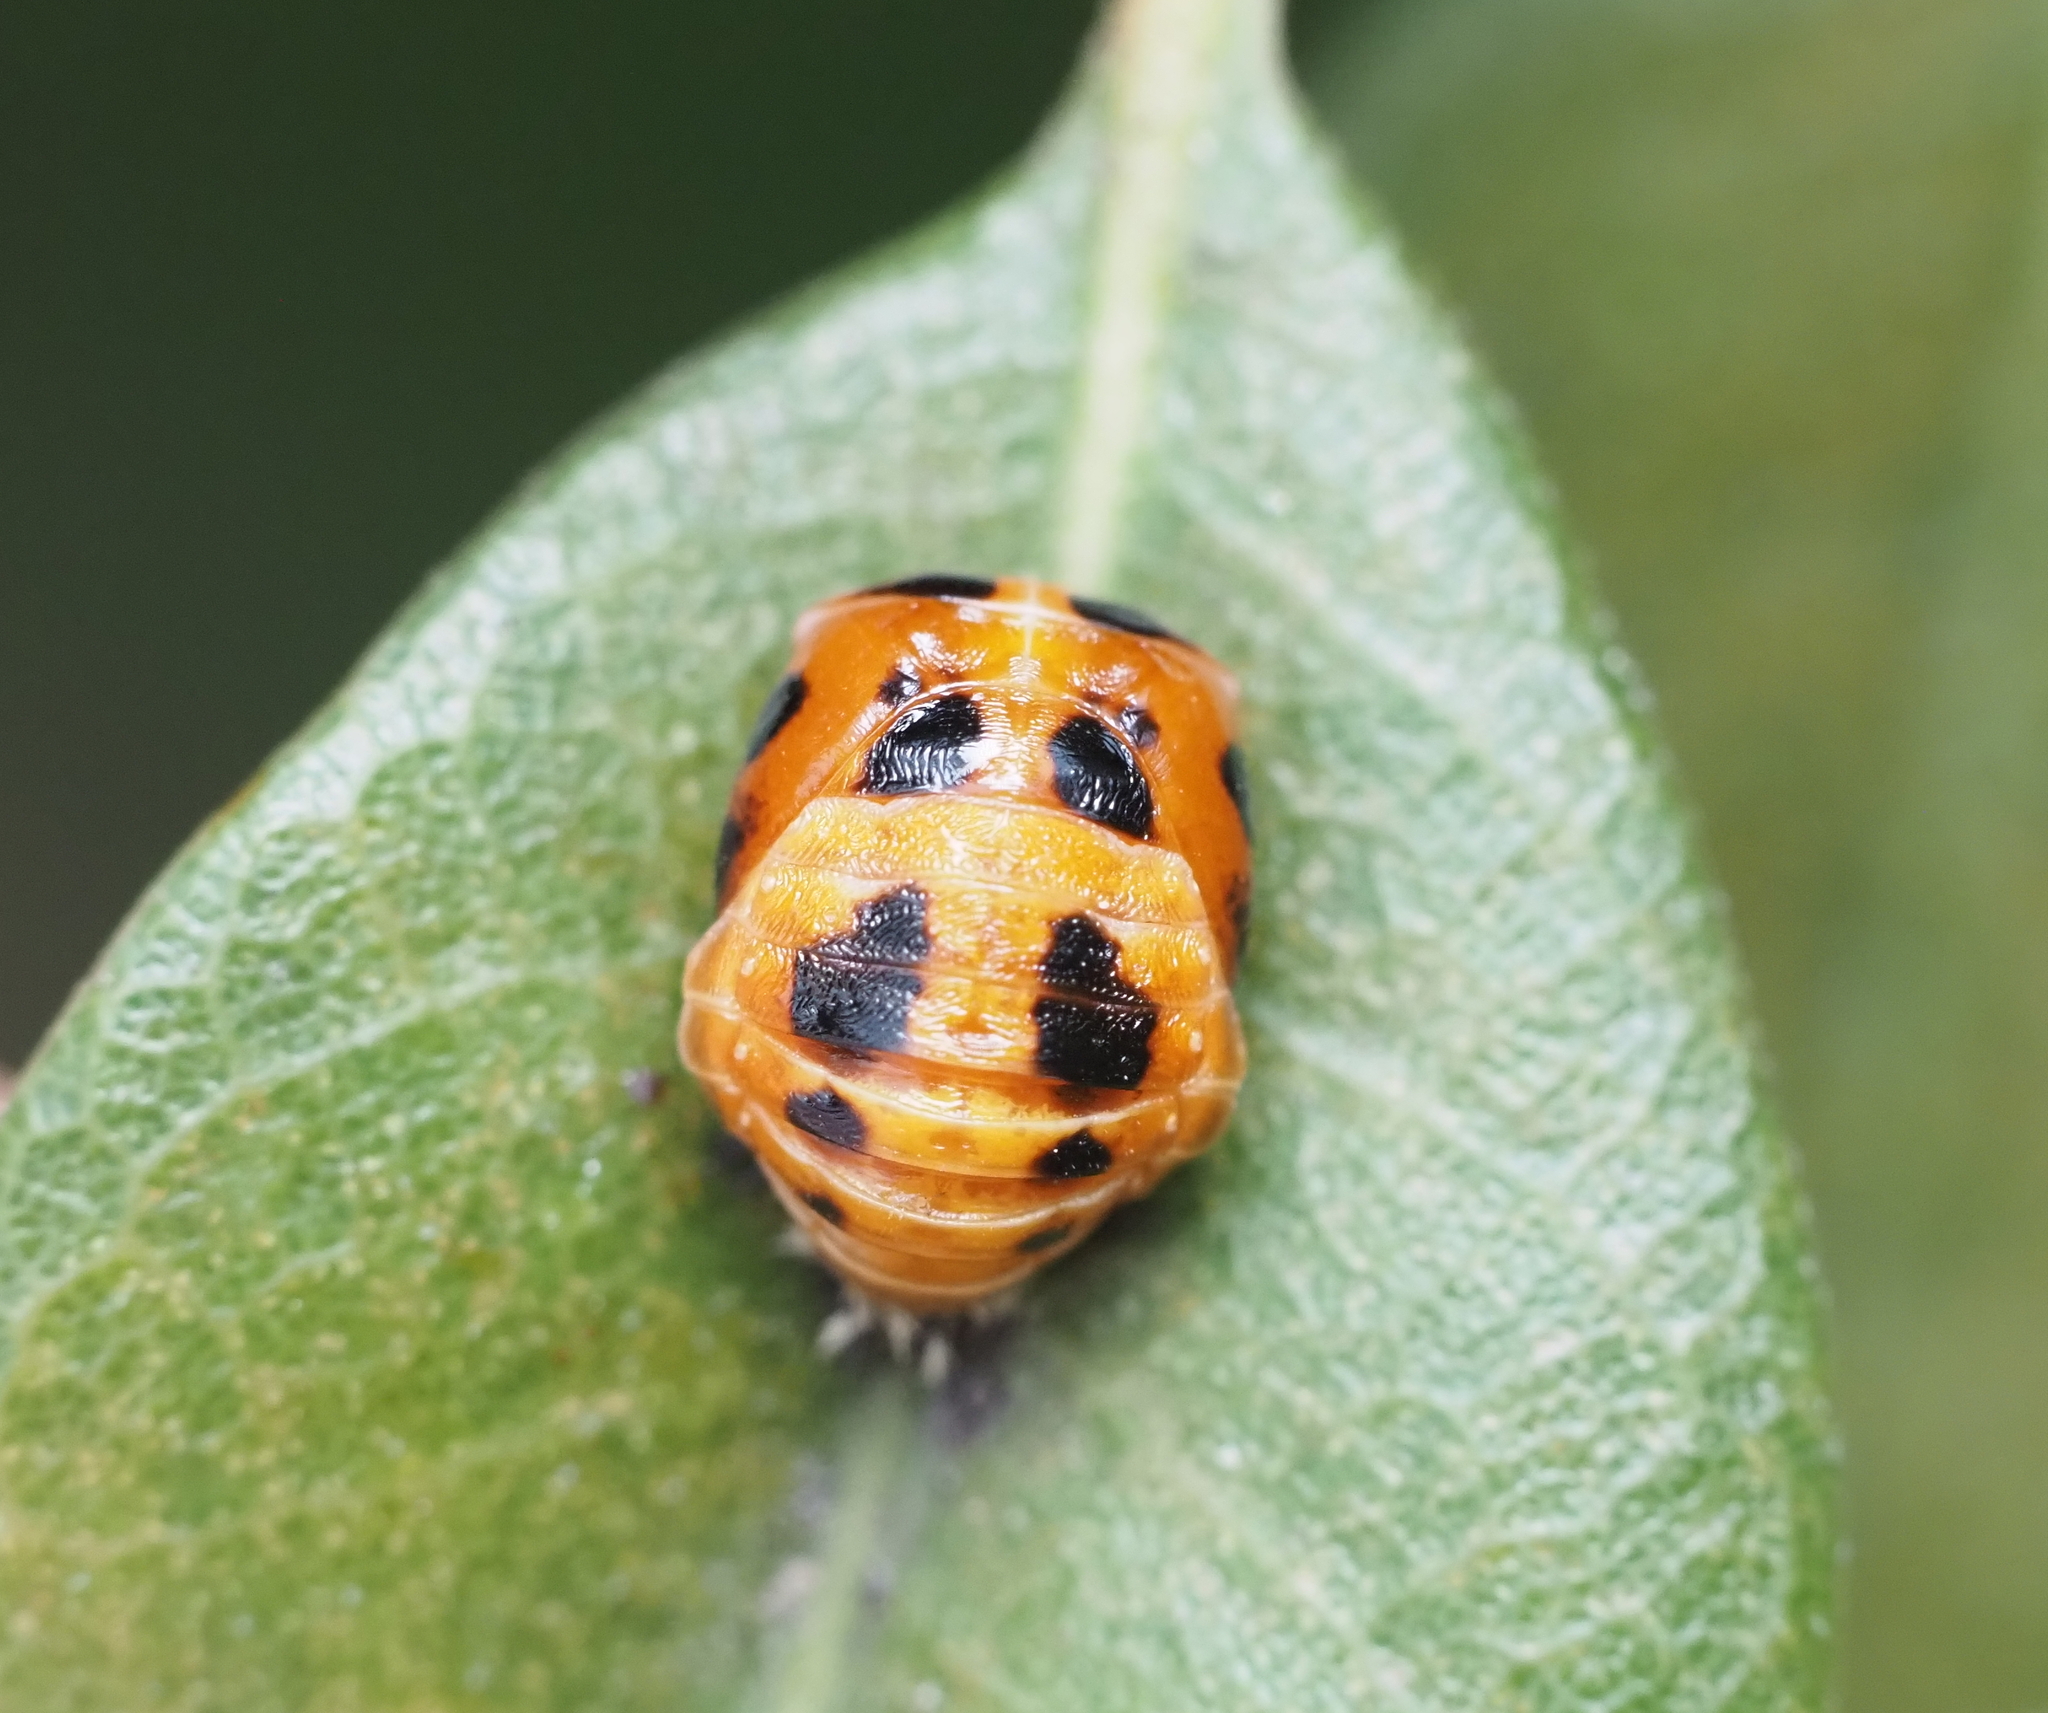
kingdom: Animalia
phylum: Arthropoda
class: Insecta
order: Coleoptera
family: Coccinellidae
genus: Harmonia
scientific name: Harmonia axyridis
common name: Harlequin ladybird
